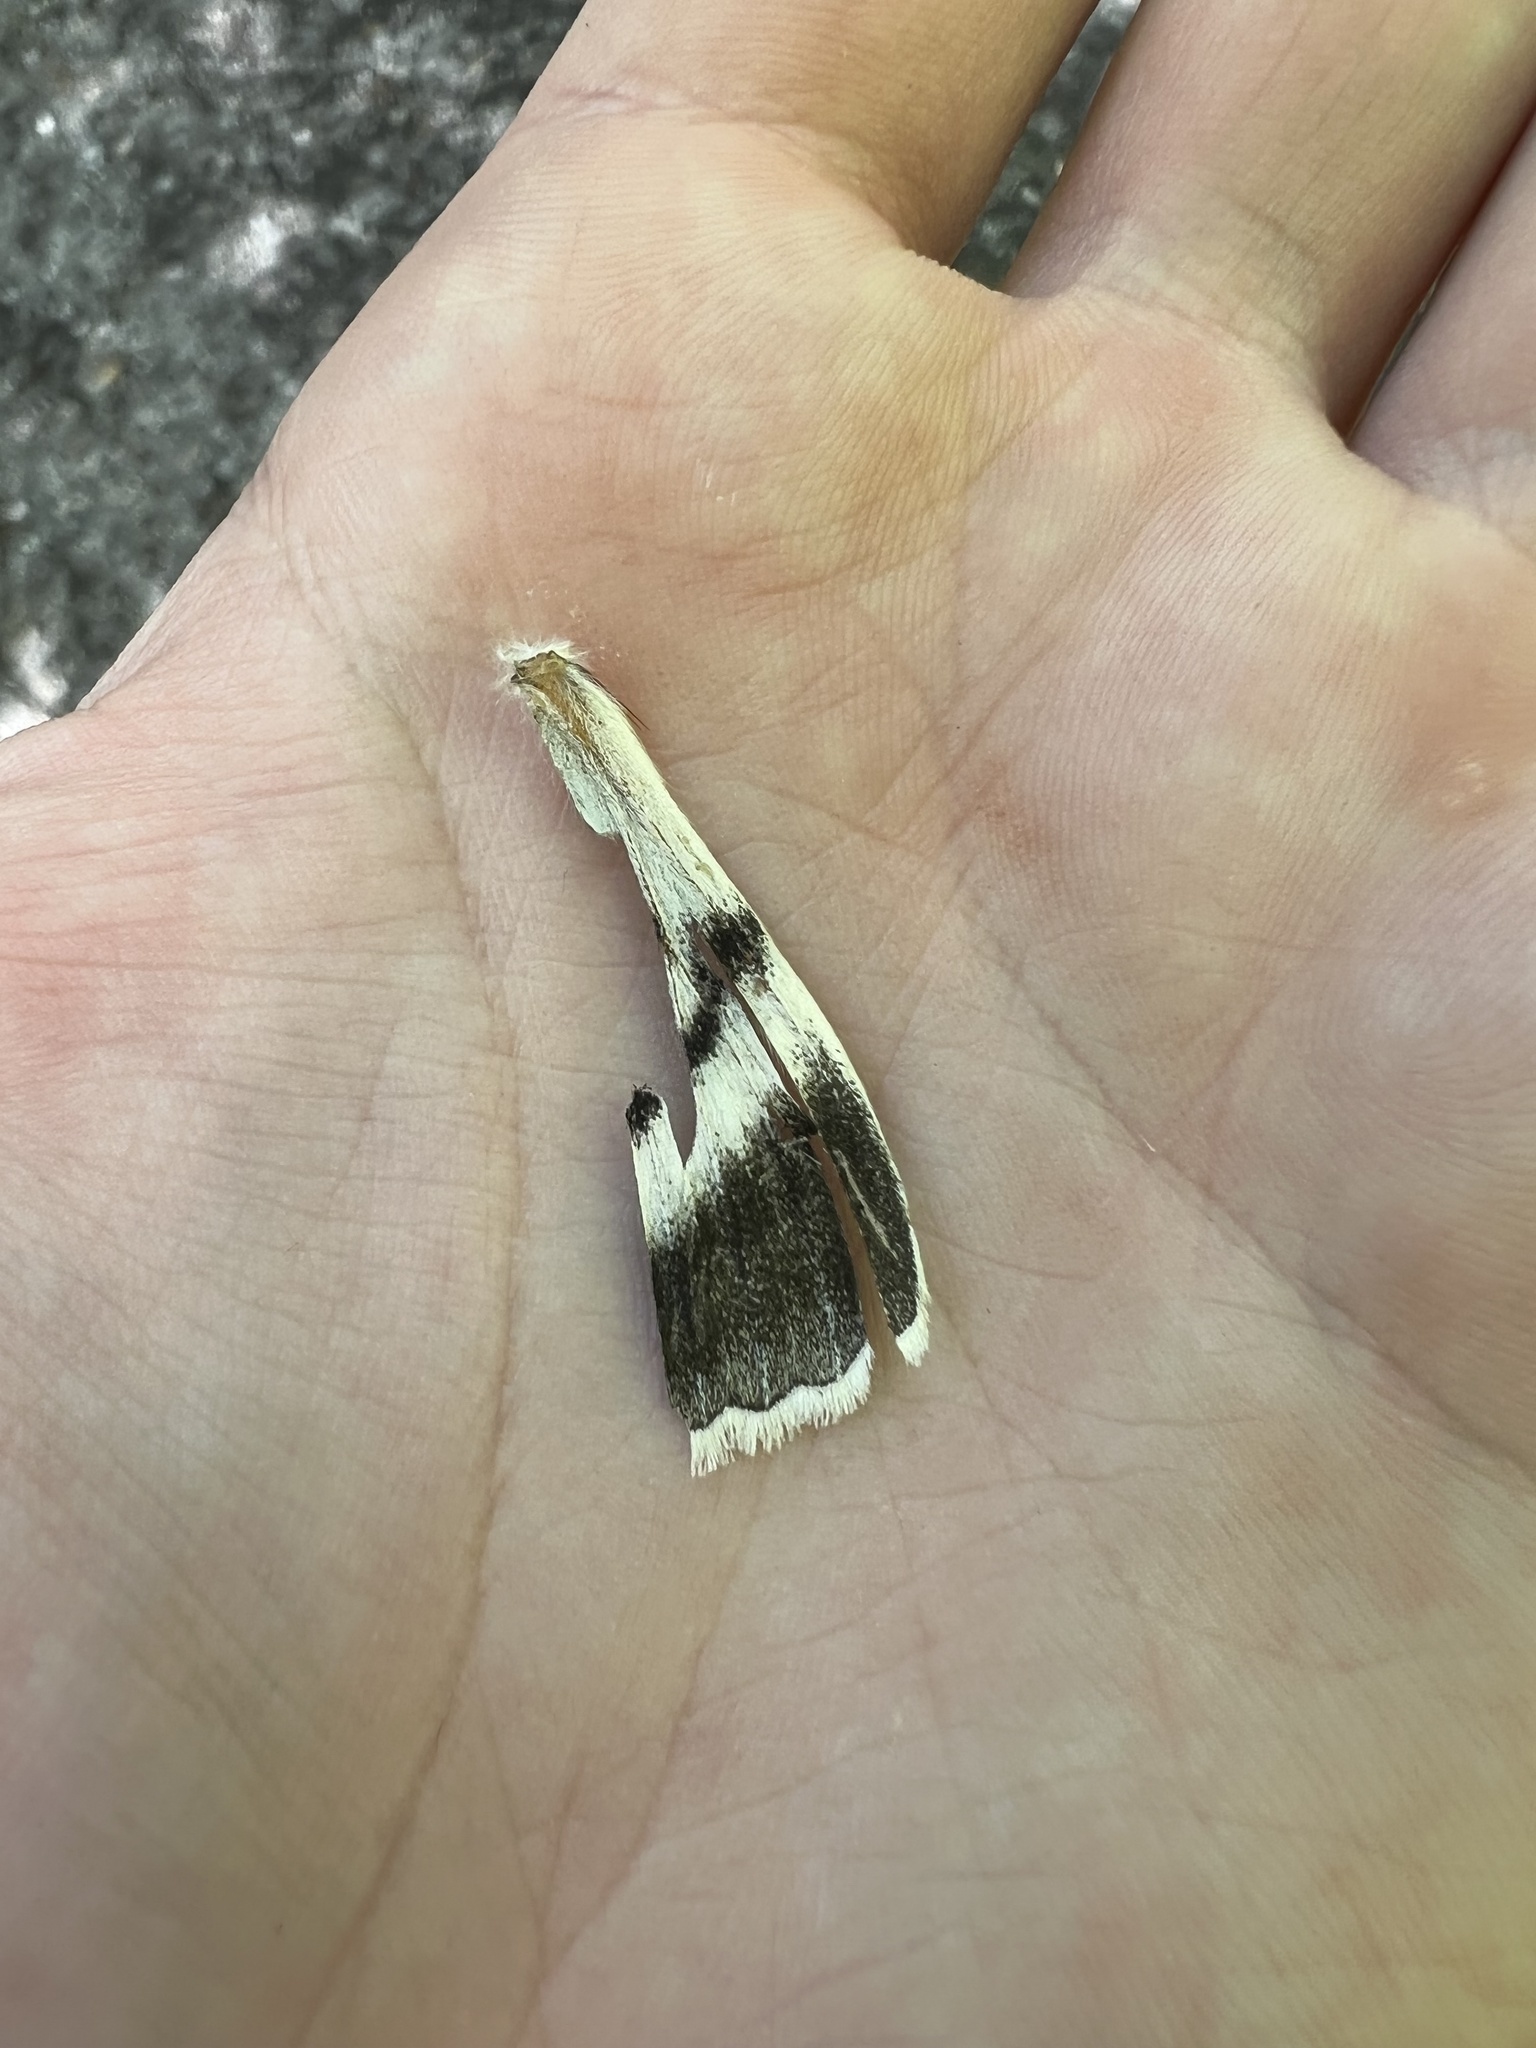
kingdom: Animalia
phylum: Arthropoda
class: Insecta
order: Lepidoptera
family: Erebidae
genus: Catocala
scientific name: Catocala relicta
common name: White underwing
